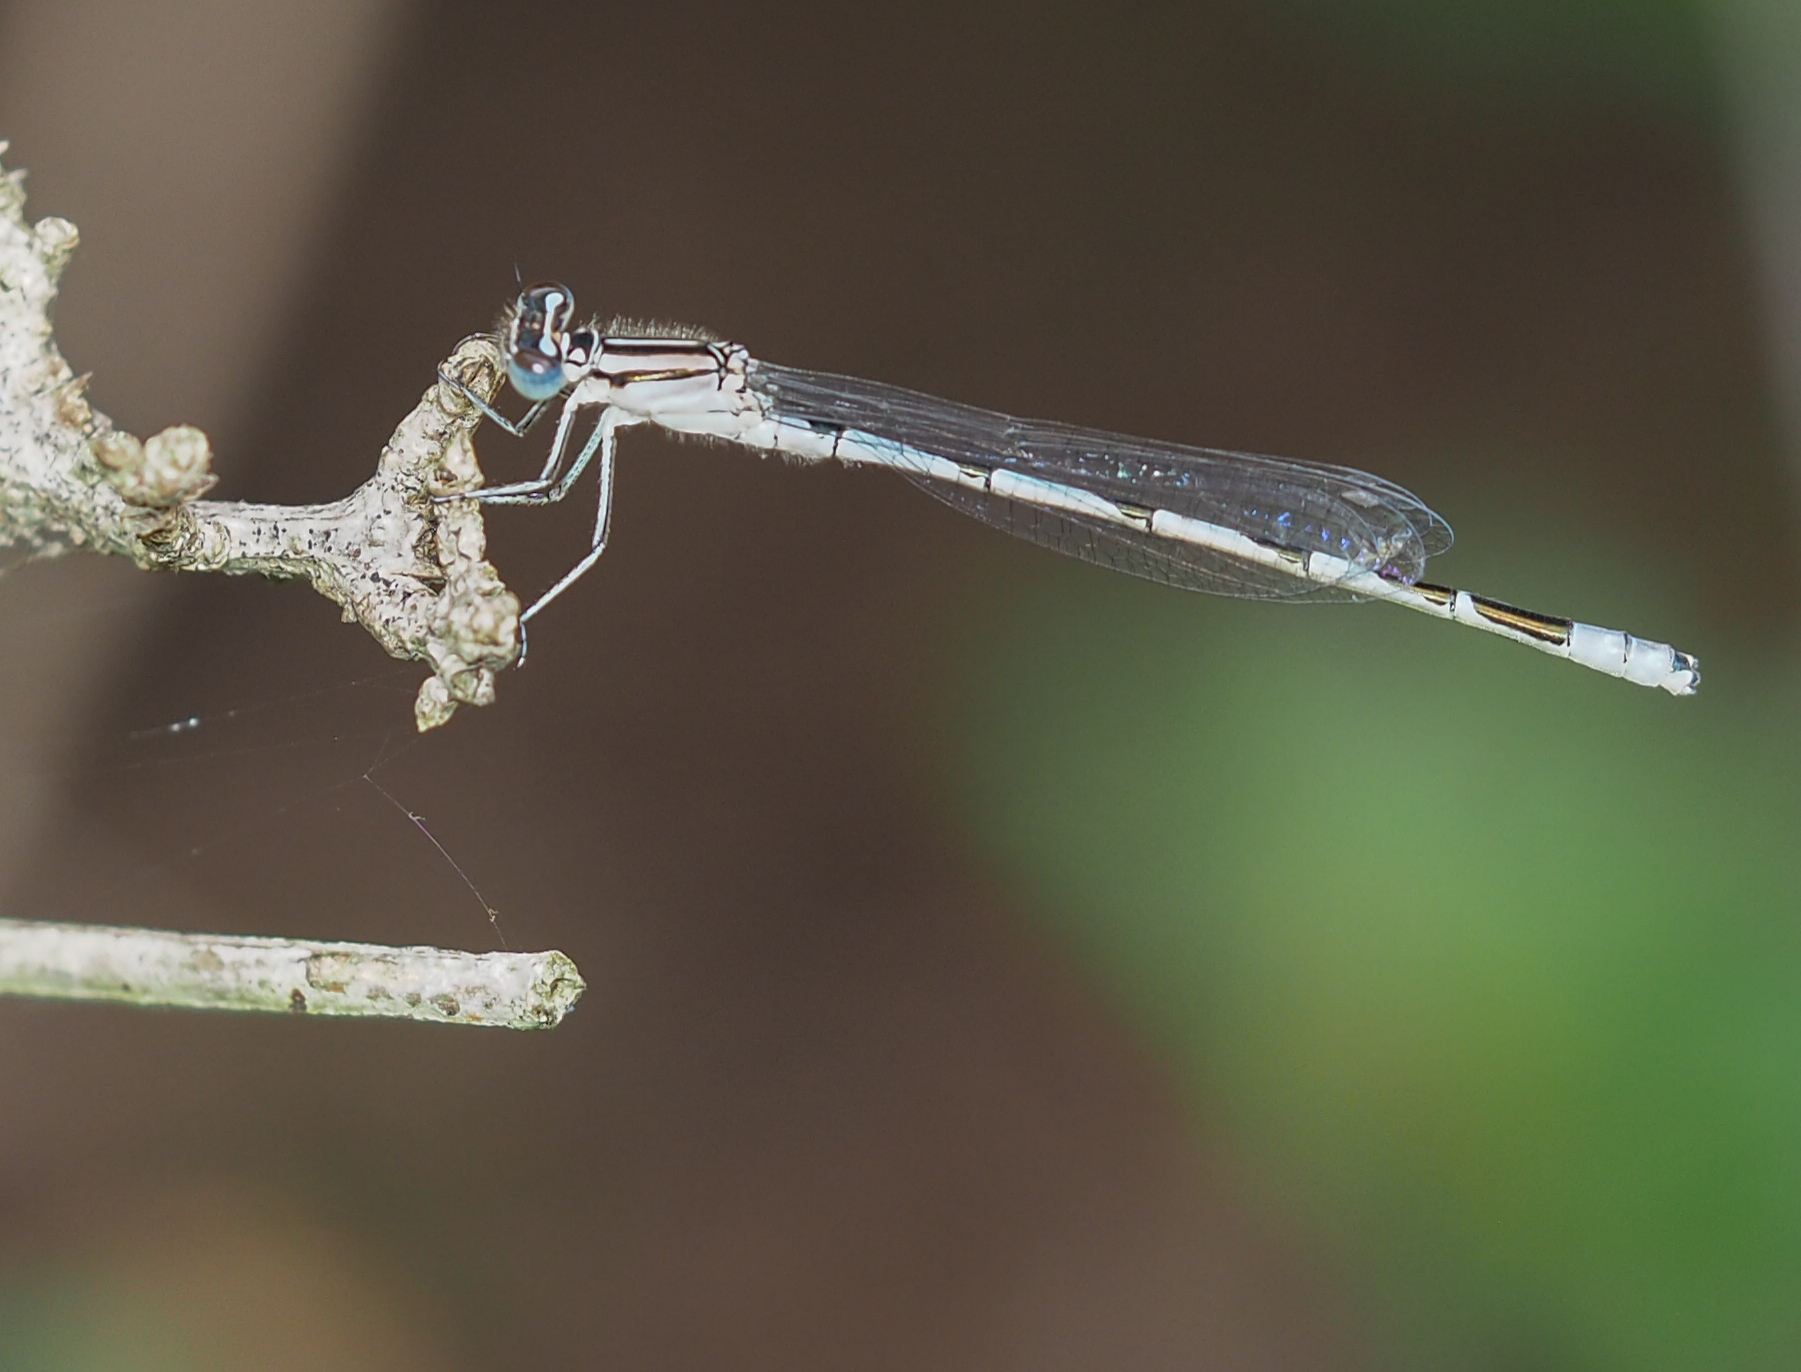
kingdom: Animalia
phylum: Arthropoda
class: Insecta
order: Odonata
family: Coenagrionidae
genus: Enallagma
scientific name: Enallagma durum
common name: Big bluet
